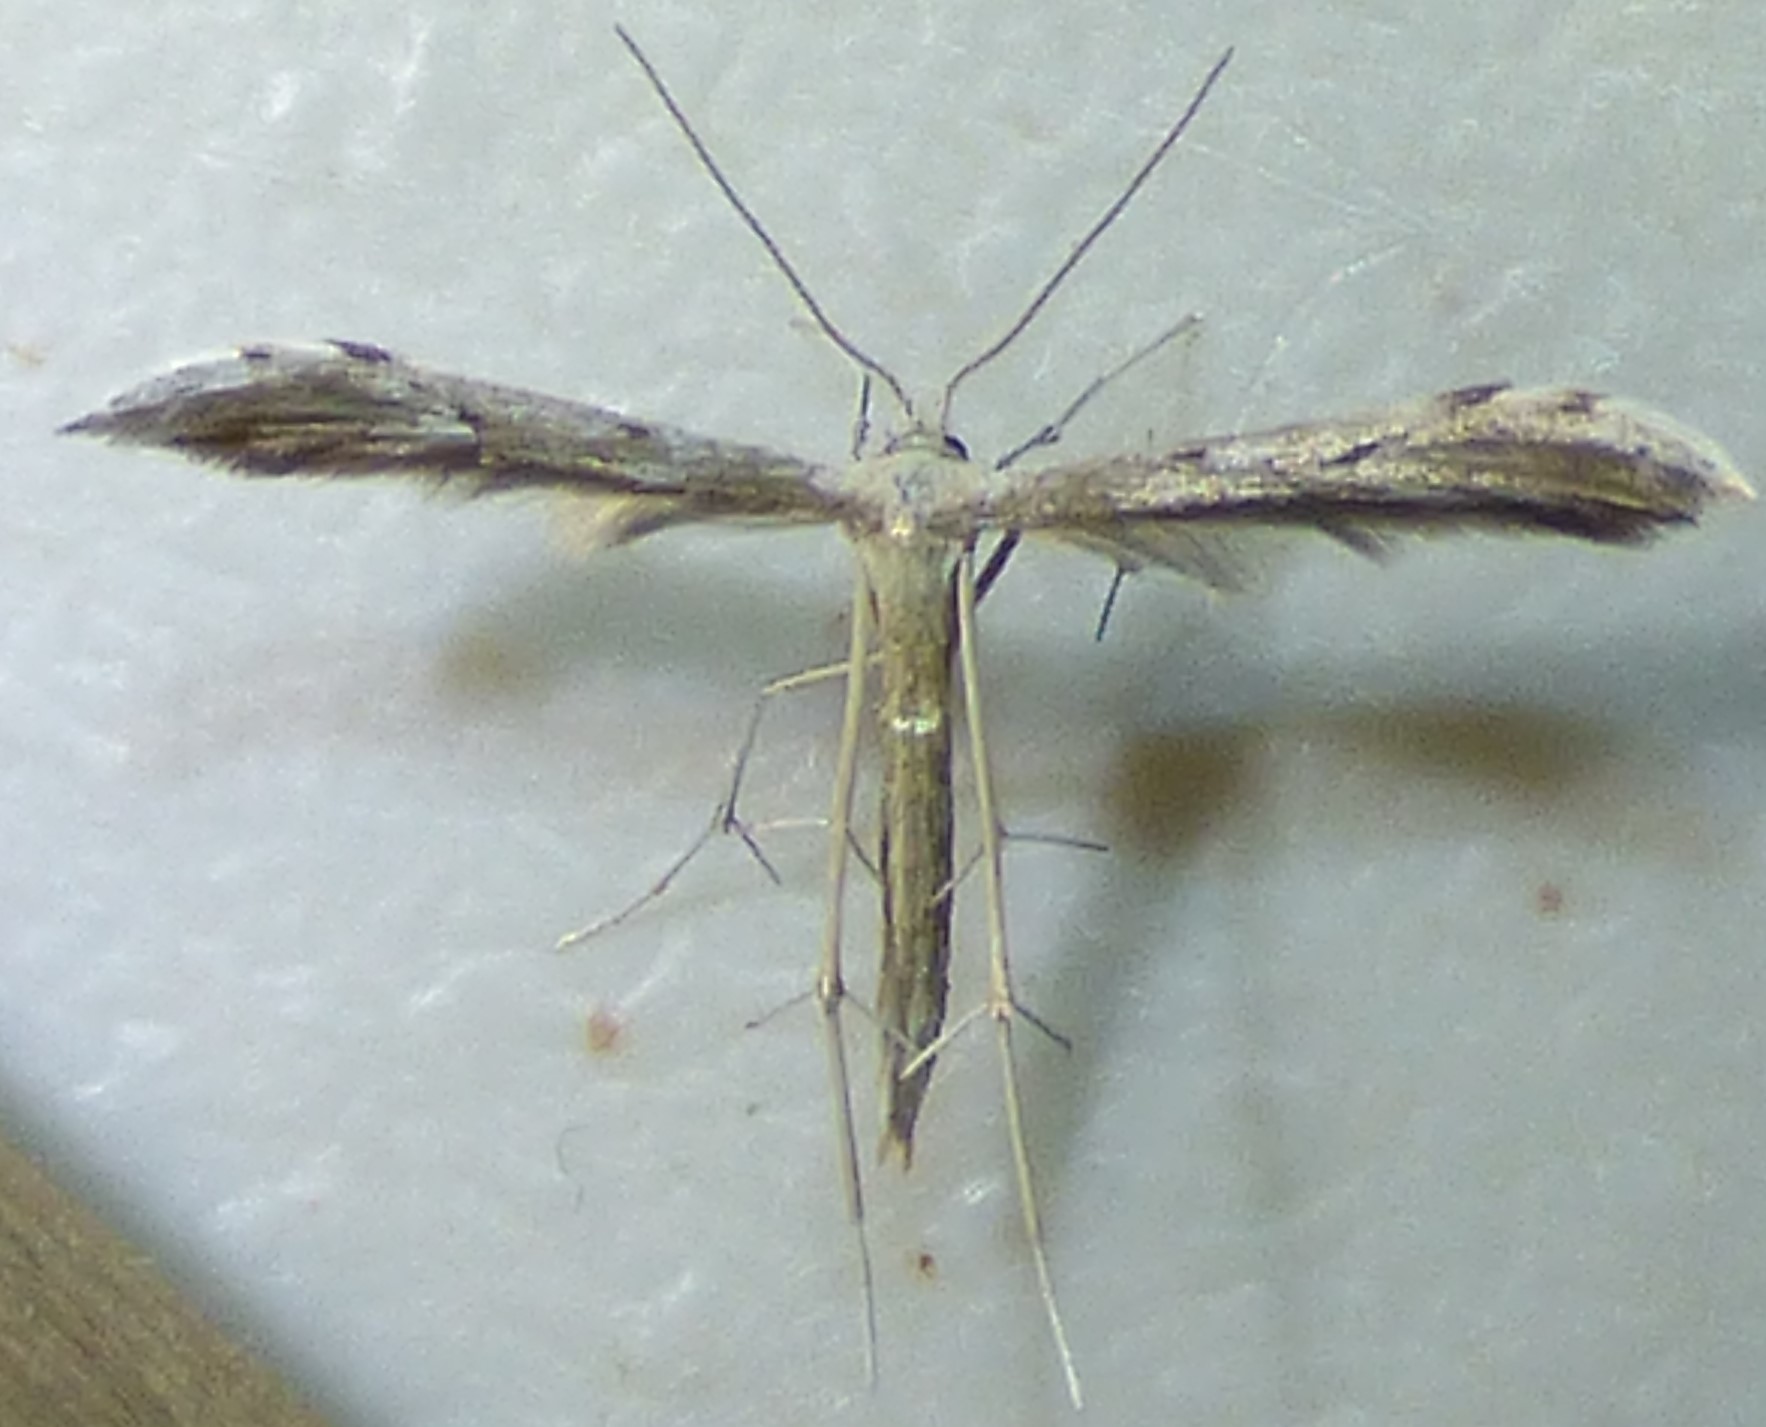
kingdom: Animalia
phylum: Arthropoda
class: Insecta
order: Lepidoptera
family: Pterophoridae
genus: Pselnophorus
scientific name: Pselnophorus belfragei
